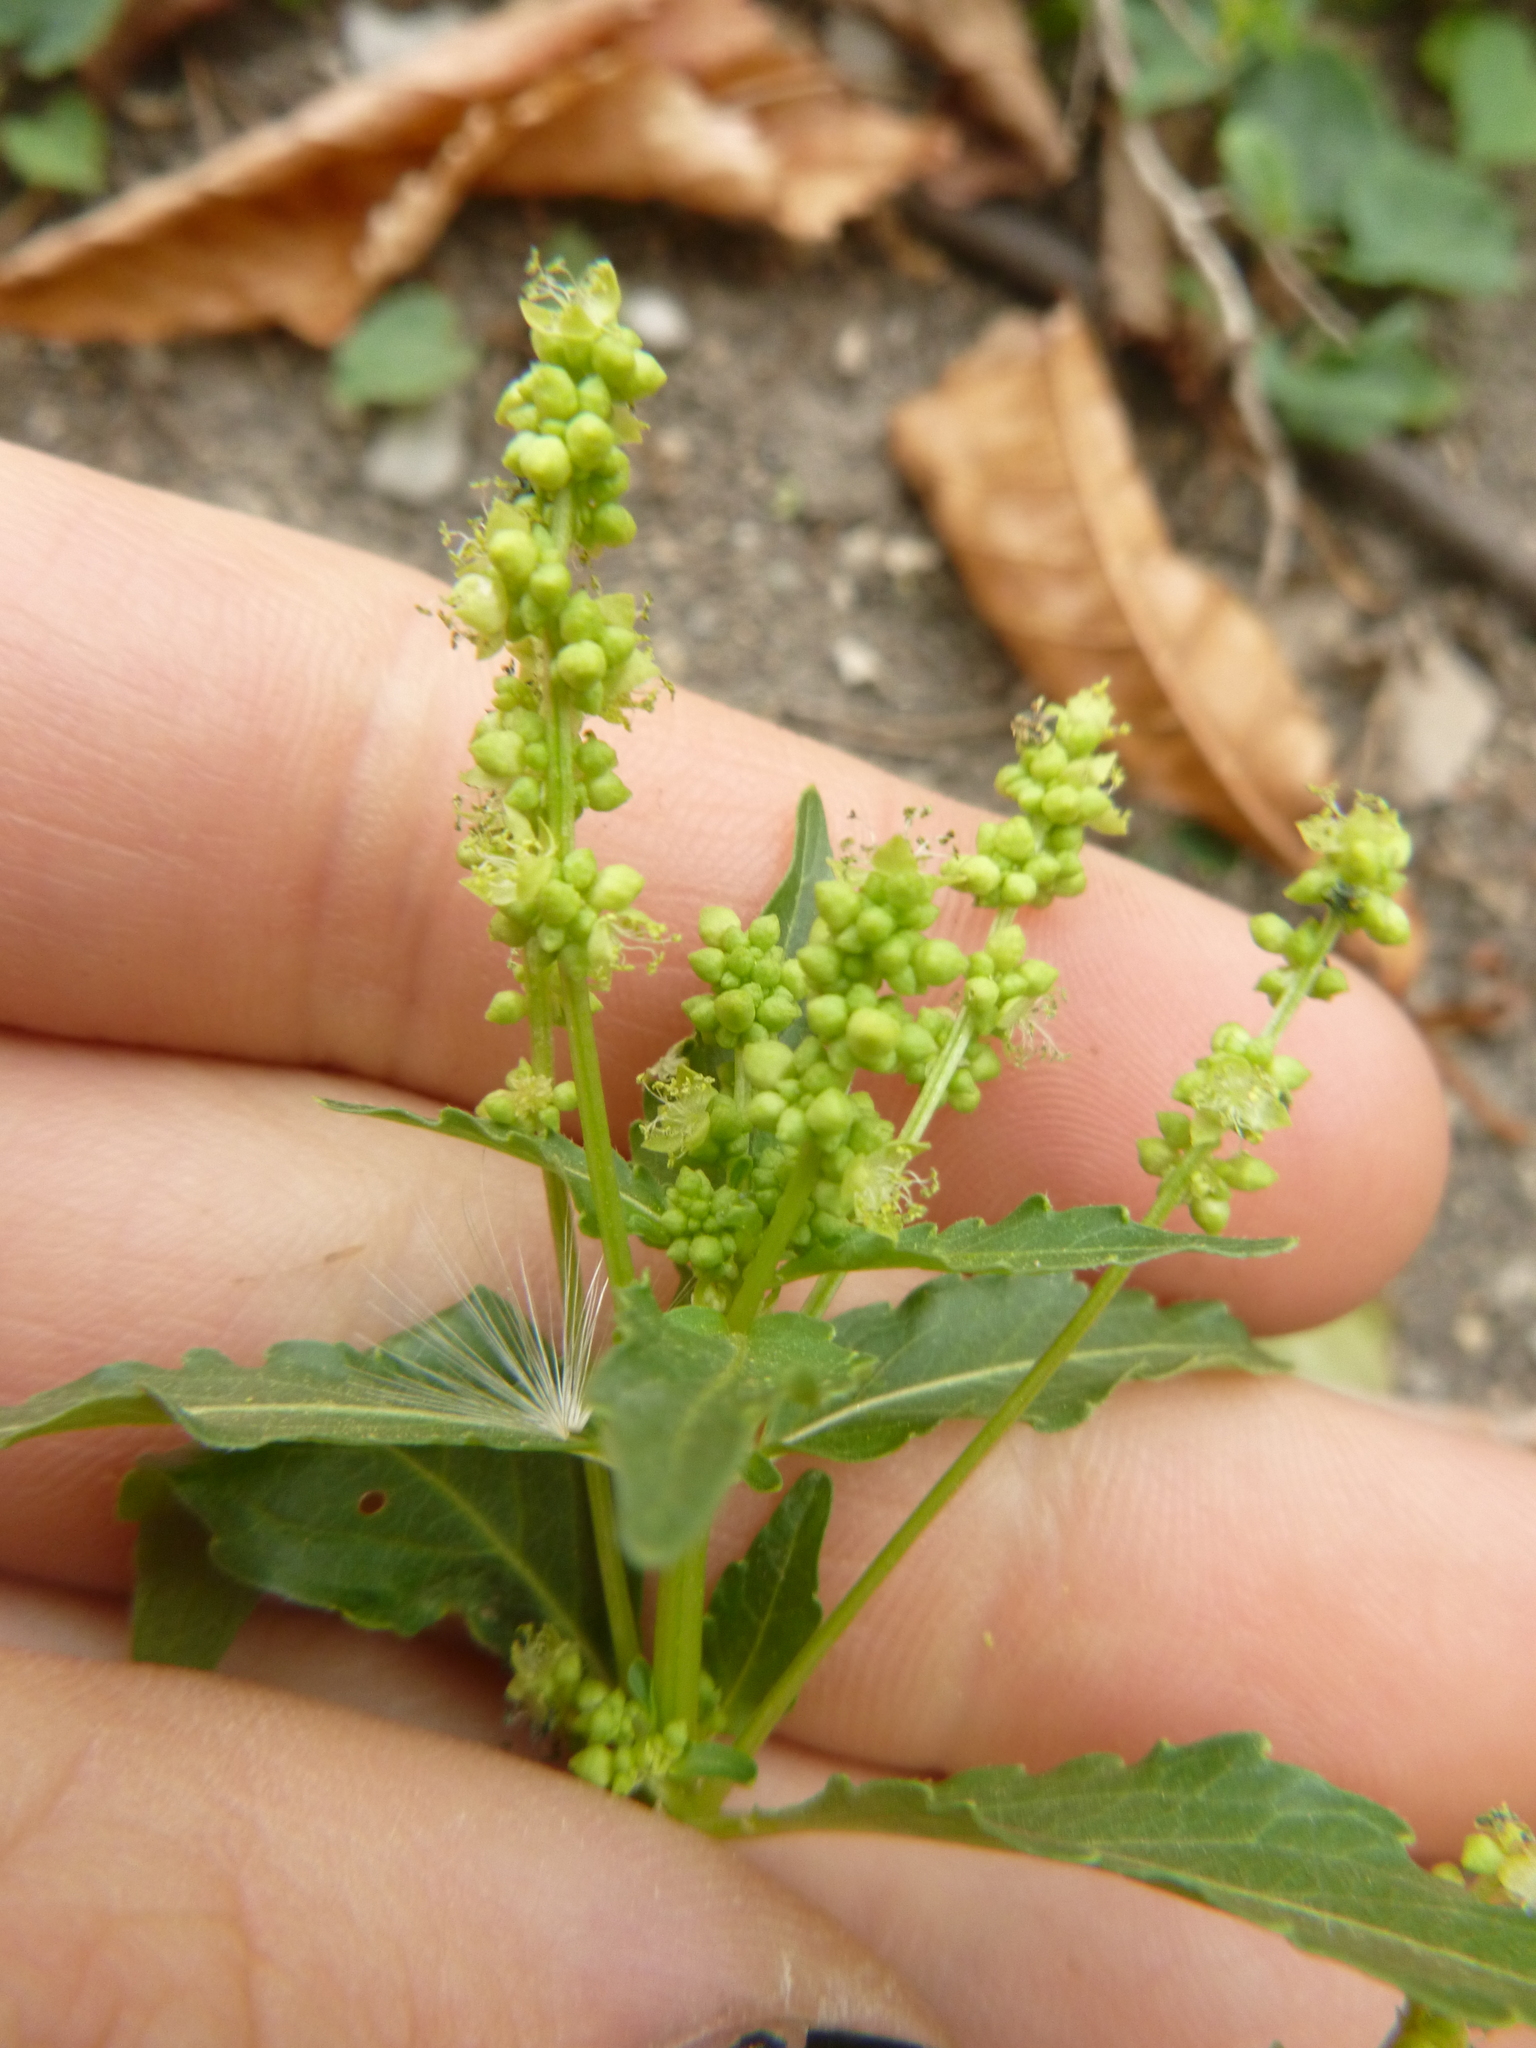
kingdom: Plantae
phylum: Tracheophyta
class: Magnoliopsida
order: Malpighiales
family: Euphorbiaceae
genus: Mercurialis
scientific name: Mercurialis annua
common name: Annual mercury
